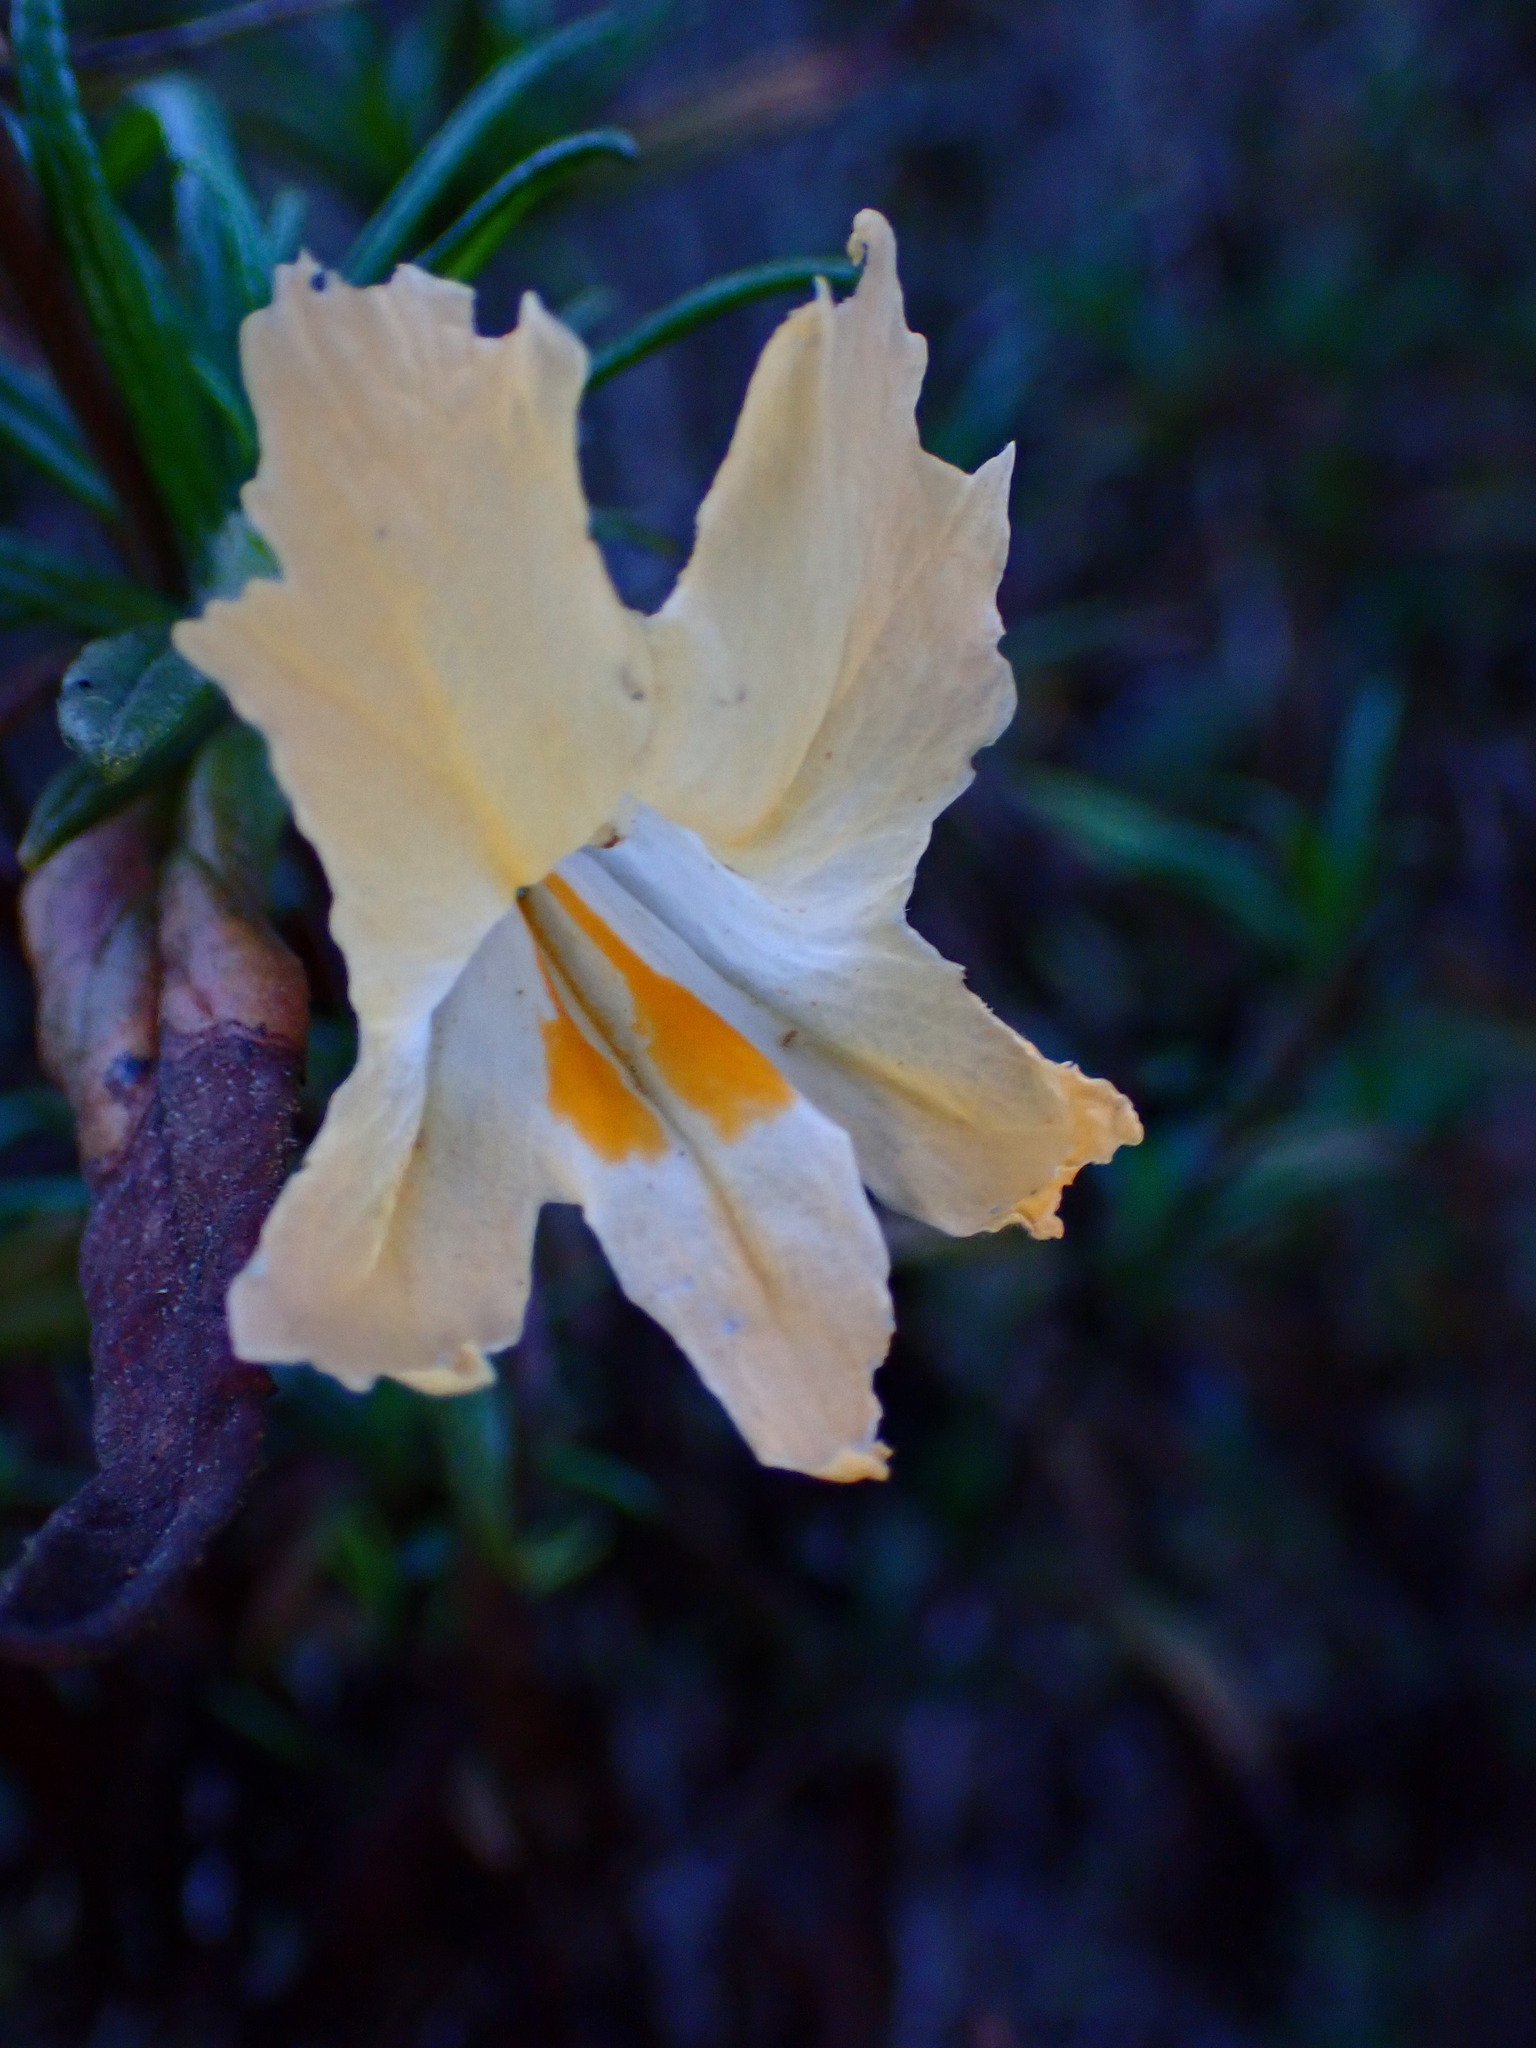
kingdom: Plantae
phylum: Tracheophyta
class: Magnoliopsida
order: Lamiales
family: Phrymaceae
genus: Diplacus
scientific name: Diplacus aurantiacus
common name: Bush monkey-flower
